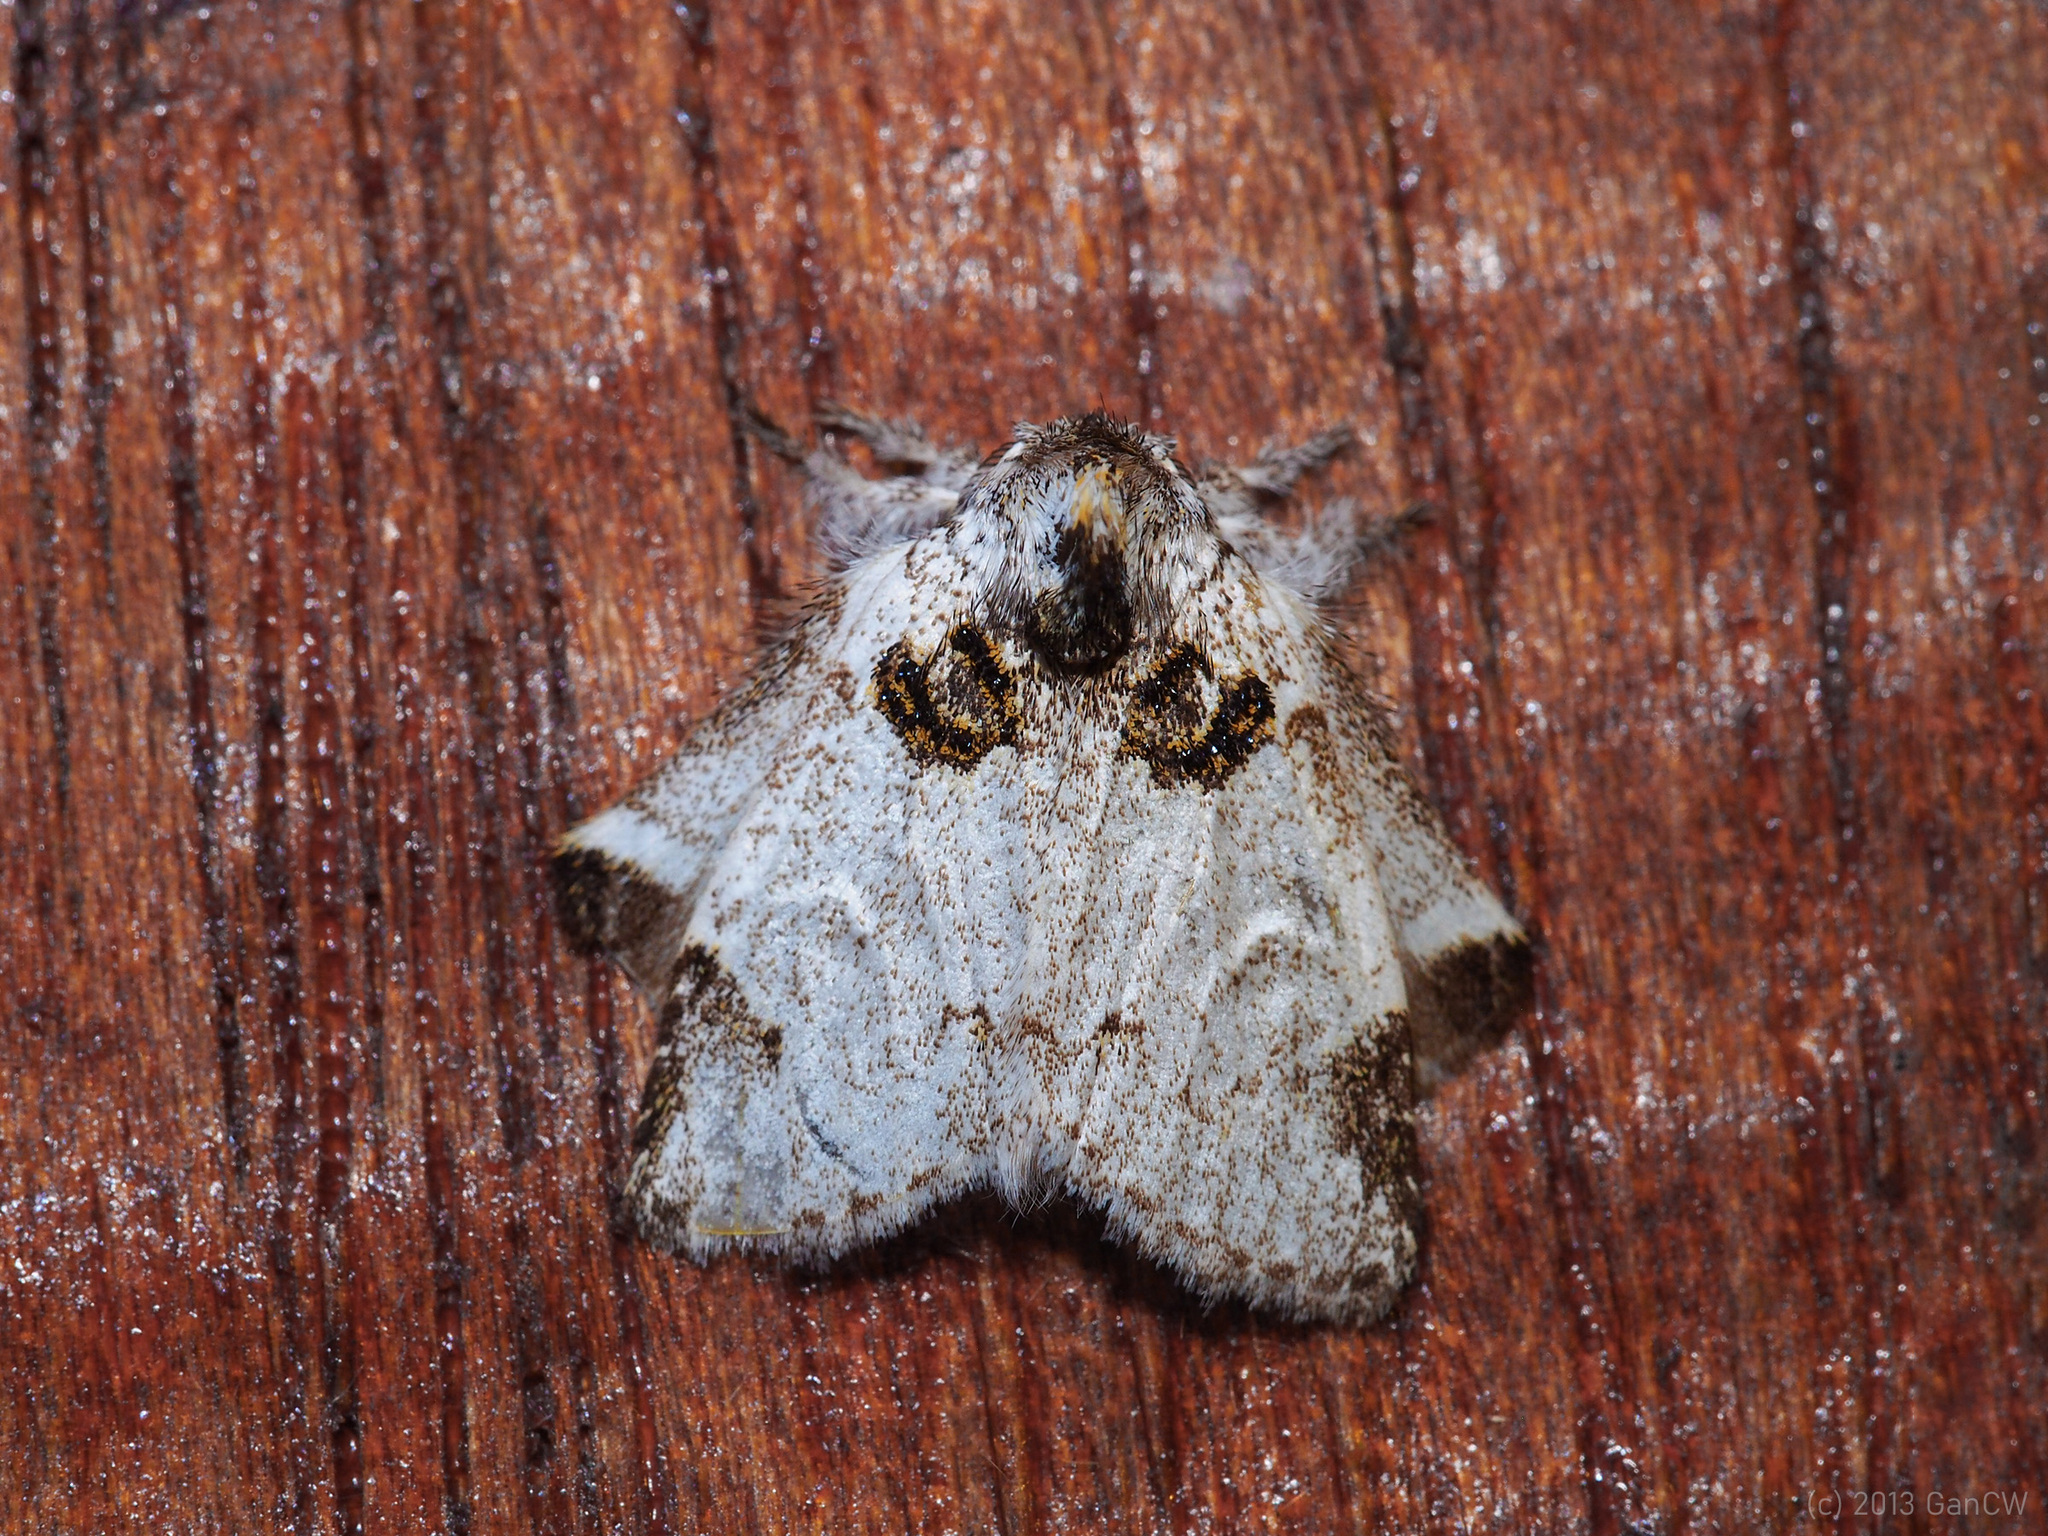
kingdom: Animalia
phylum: Arthropoda
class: Insecta
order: Lepidoptera
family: Notodontidae
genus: Pantanopsis
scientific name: Pantanopsis diehli
